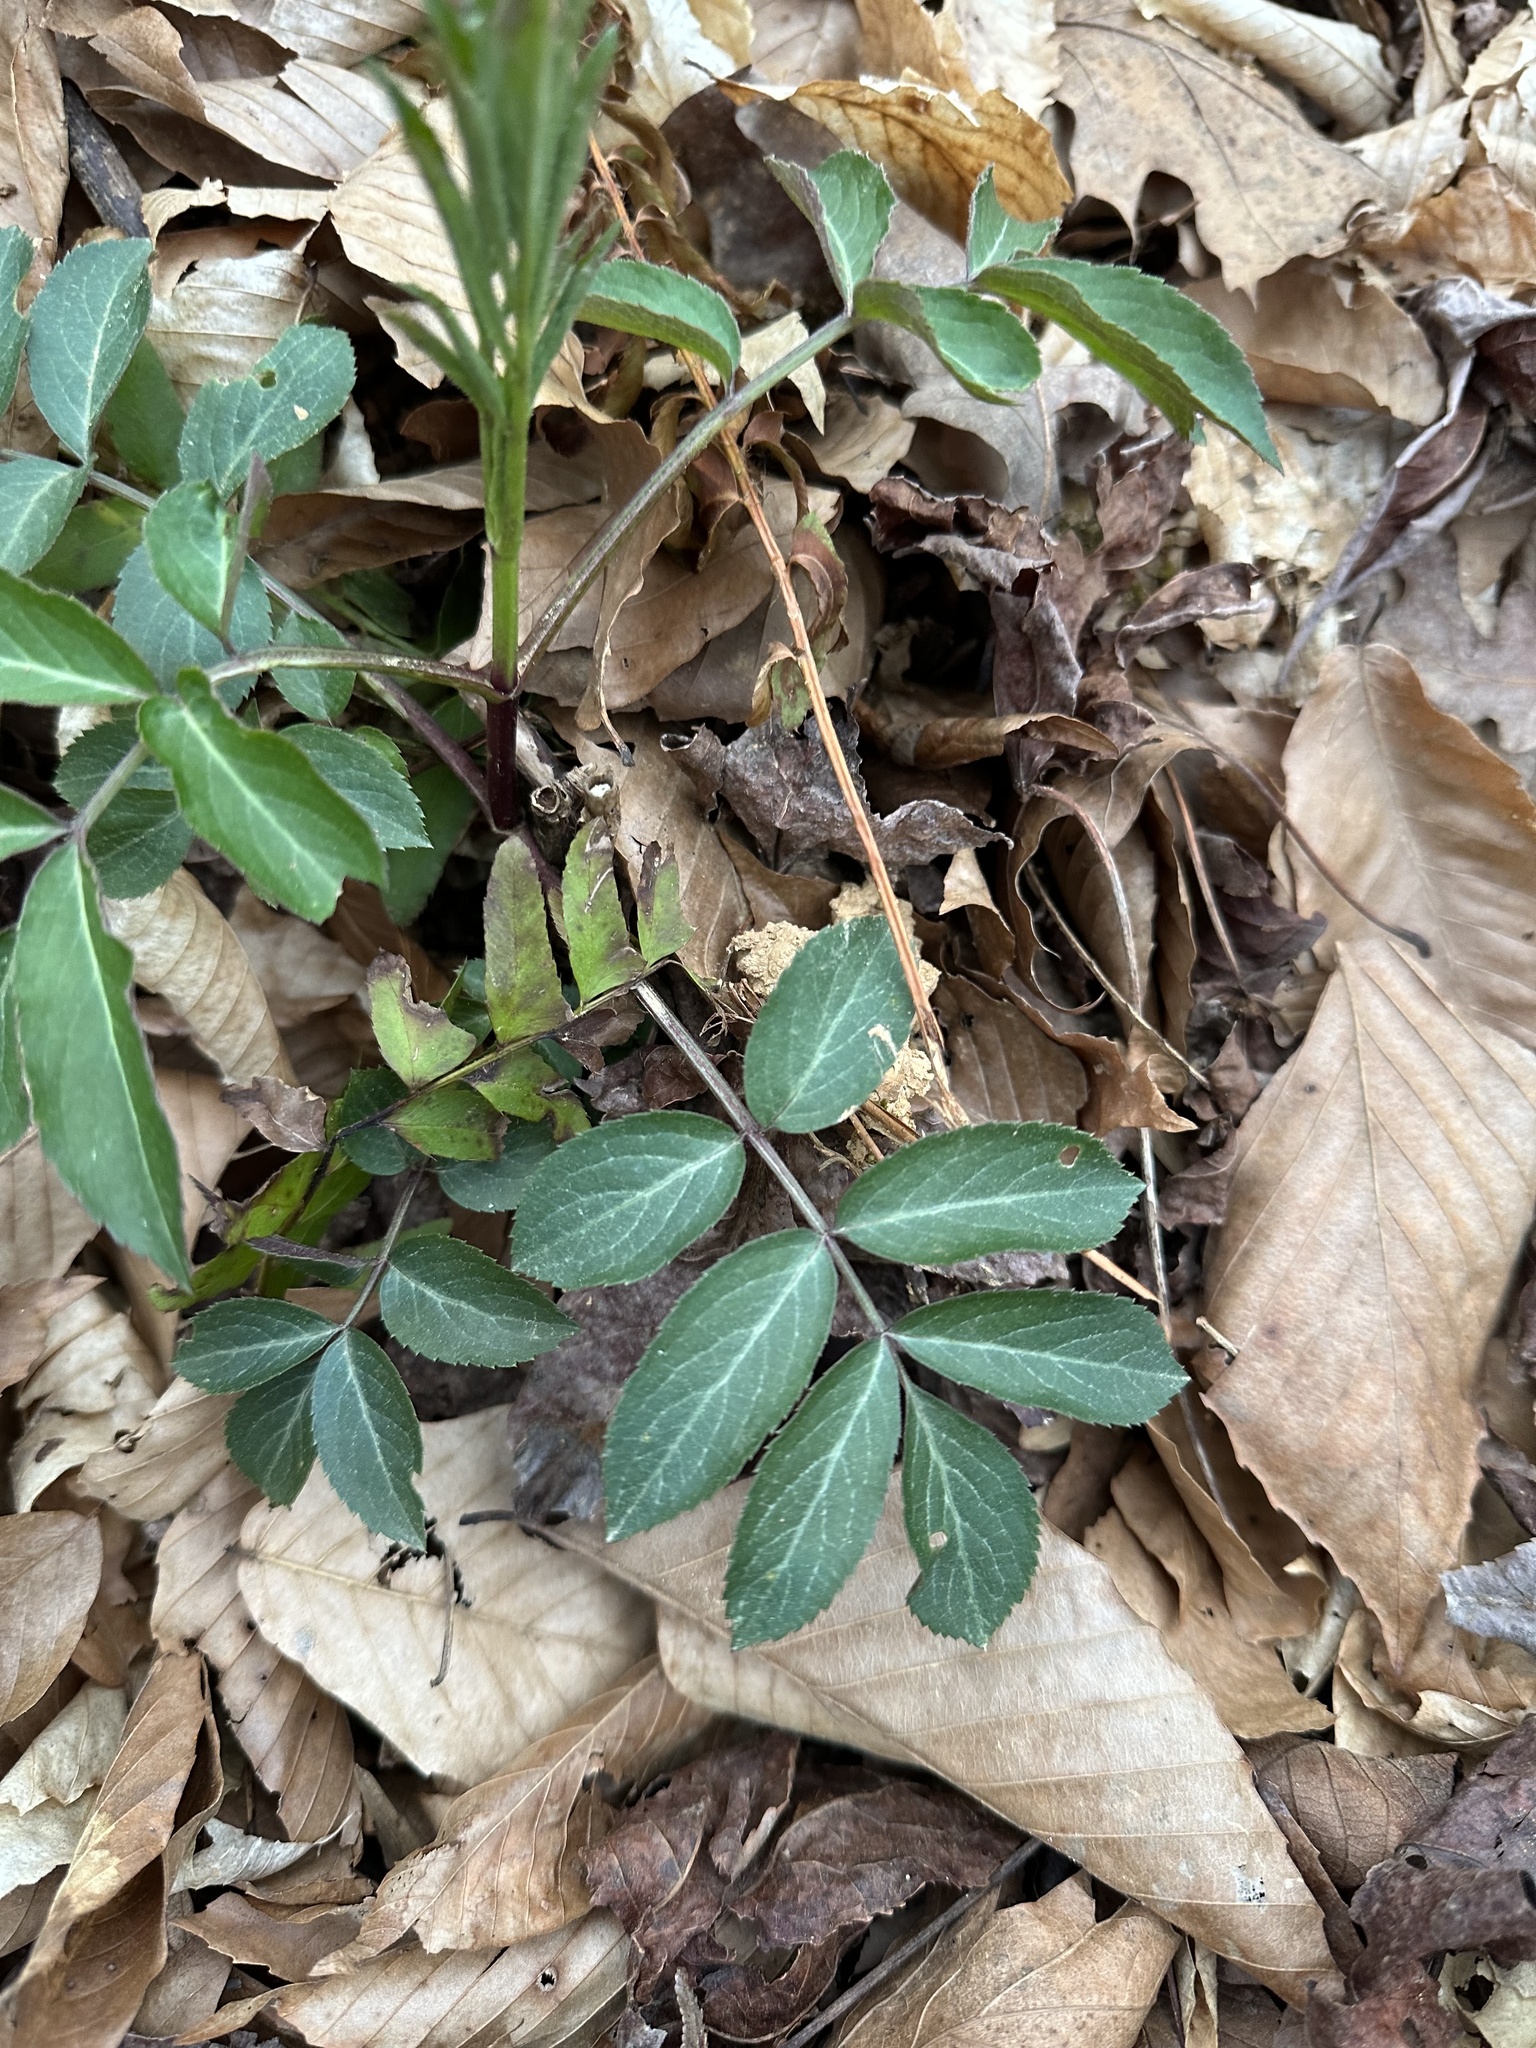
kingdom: Plantae
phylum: Tracheophyta
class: Magnoliopsida
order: Dipsacales
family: Viburnaceae
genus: Sambucus
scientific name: Sambucus canadensis
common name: American elder
